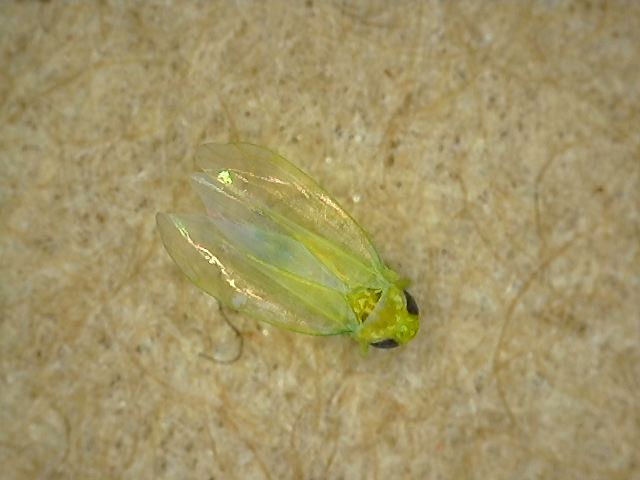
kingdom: Animalia
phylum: Arthropoda
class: Insecta
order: Hemiptera
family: Cicadellidae
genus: Empoasca
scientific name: Empoasca fabae
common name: Potato leafhopper
